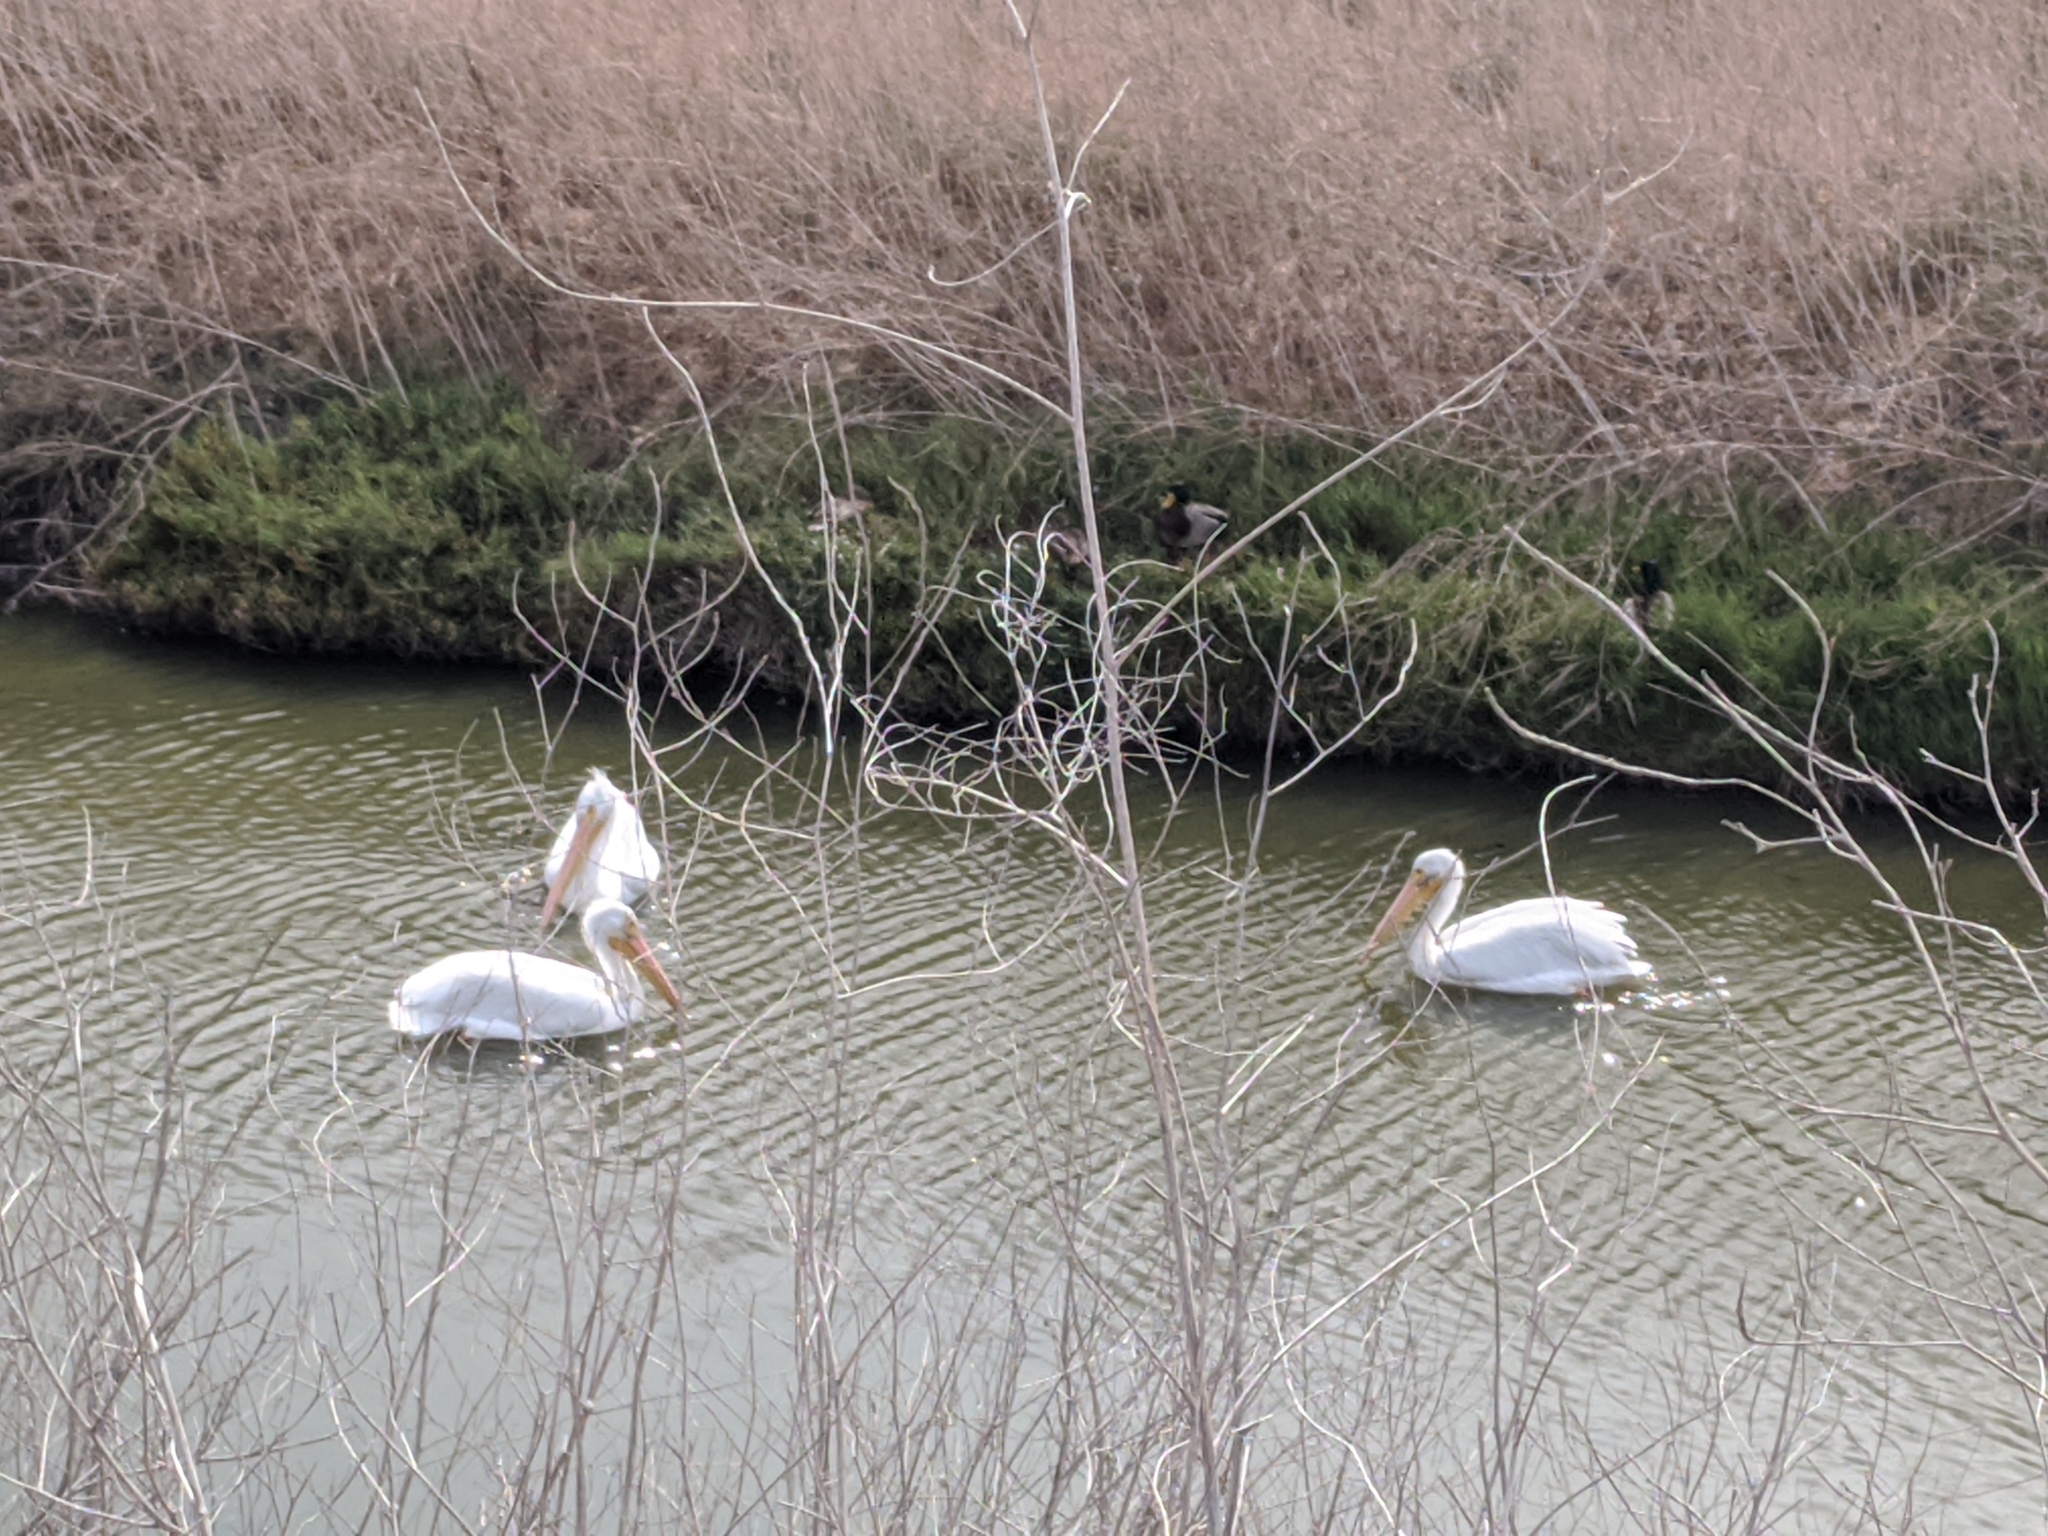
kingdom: Animalia
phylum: Chordata
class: Aves
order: Pelecaniformes
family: Pelecanidae
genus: Pelecanus
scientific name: Pelecanus erythrorhynchos
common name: American white pelican
